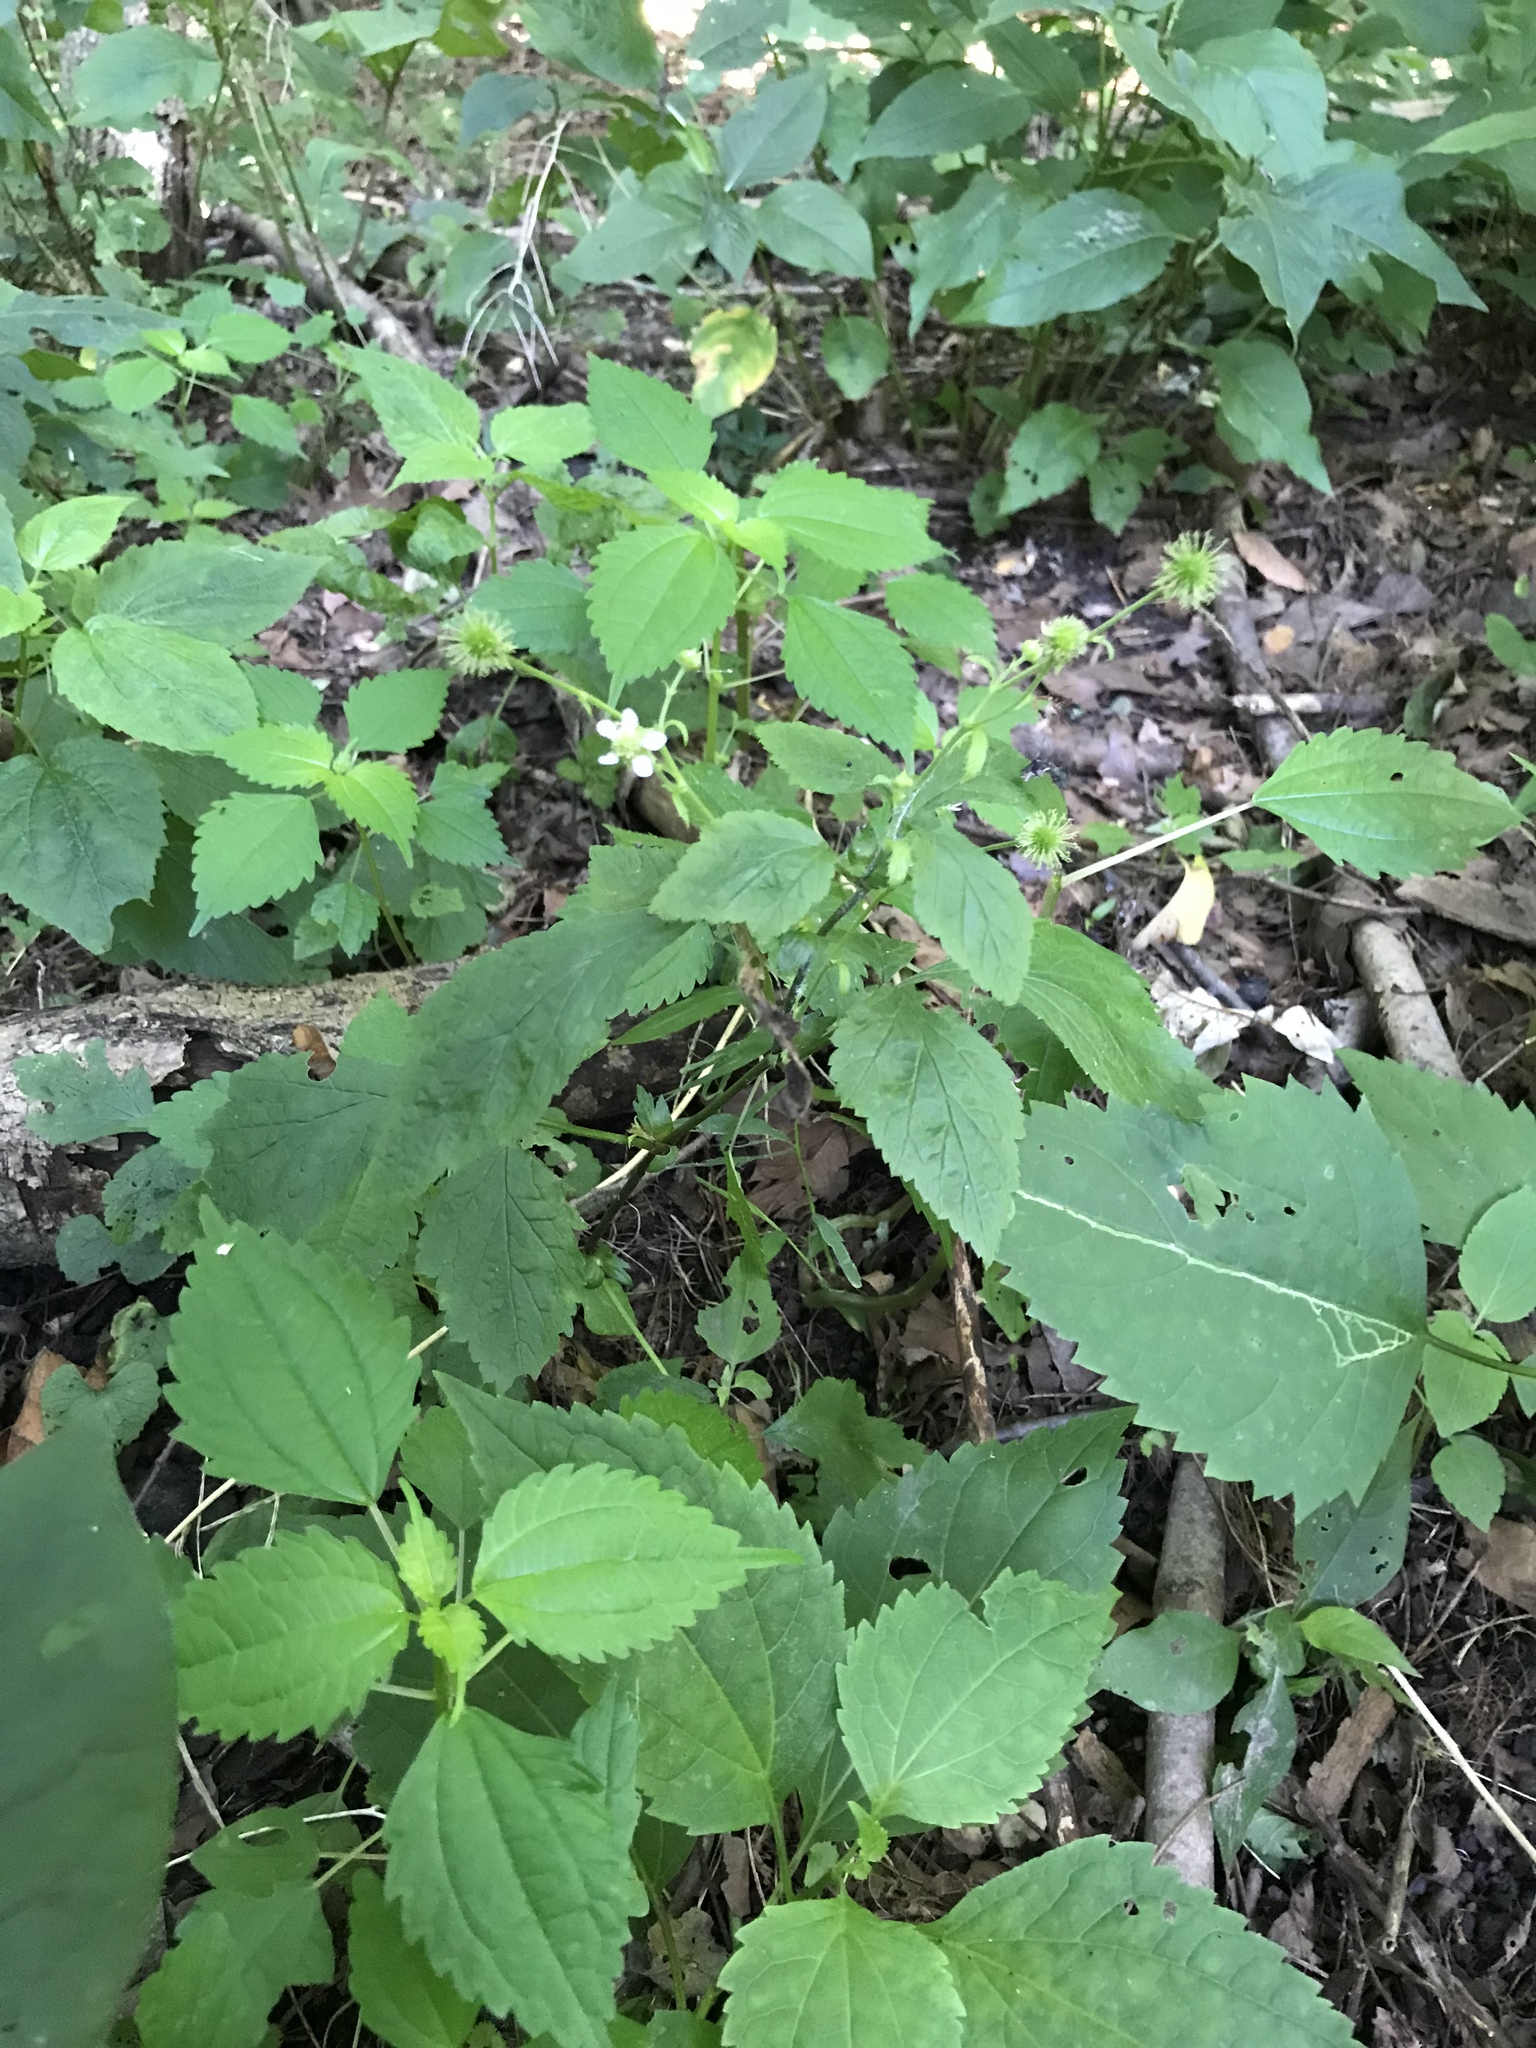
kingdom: Plantae
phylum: Tracheophyta
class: Magnoliopsida
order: Rosales
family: Rosaceae
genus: Geum
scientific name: Geum canadense
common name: White avens
